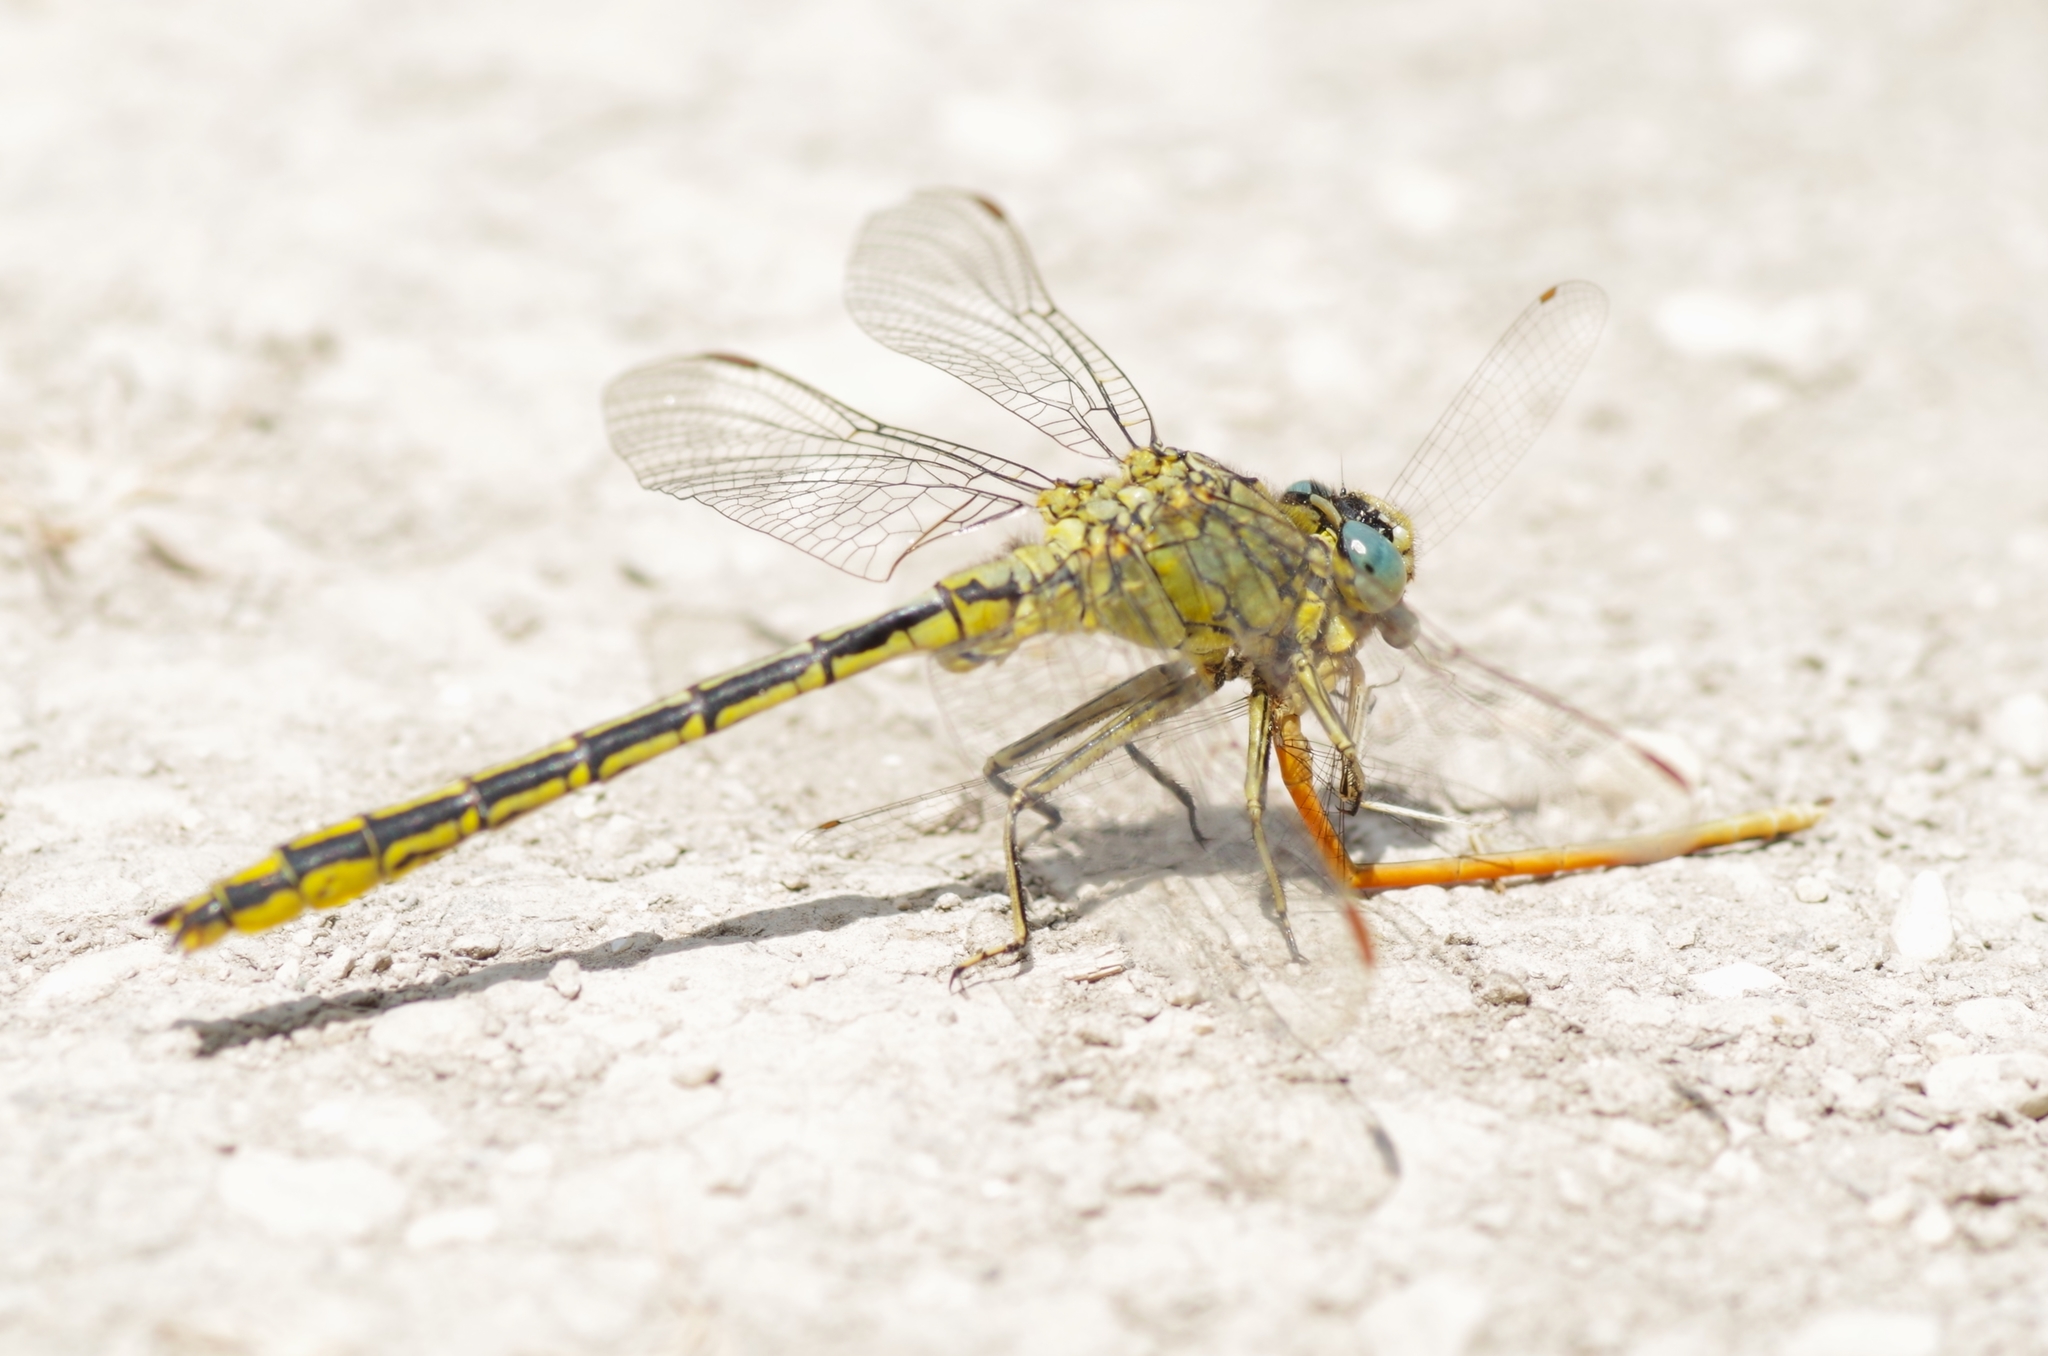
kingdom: Animalia
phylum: Arthropoda
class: Insecta
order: Odonata
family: Gomphidae
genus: Gomphus
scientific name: Gomphus pulchellus
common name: Western clubtail
